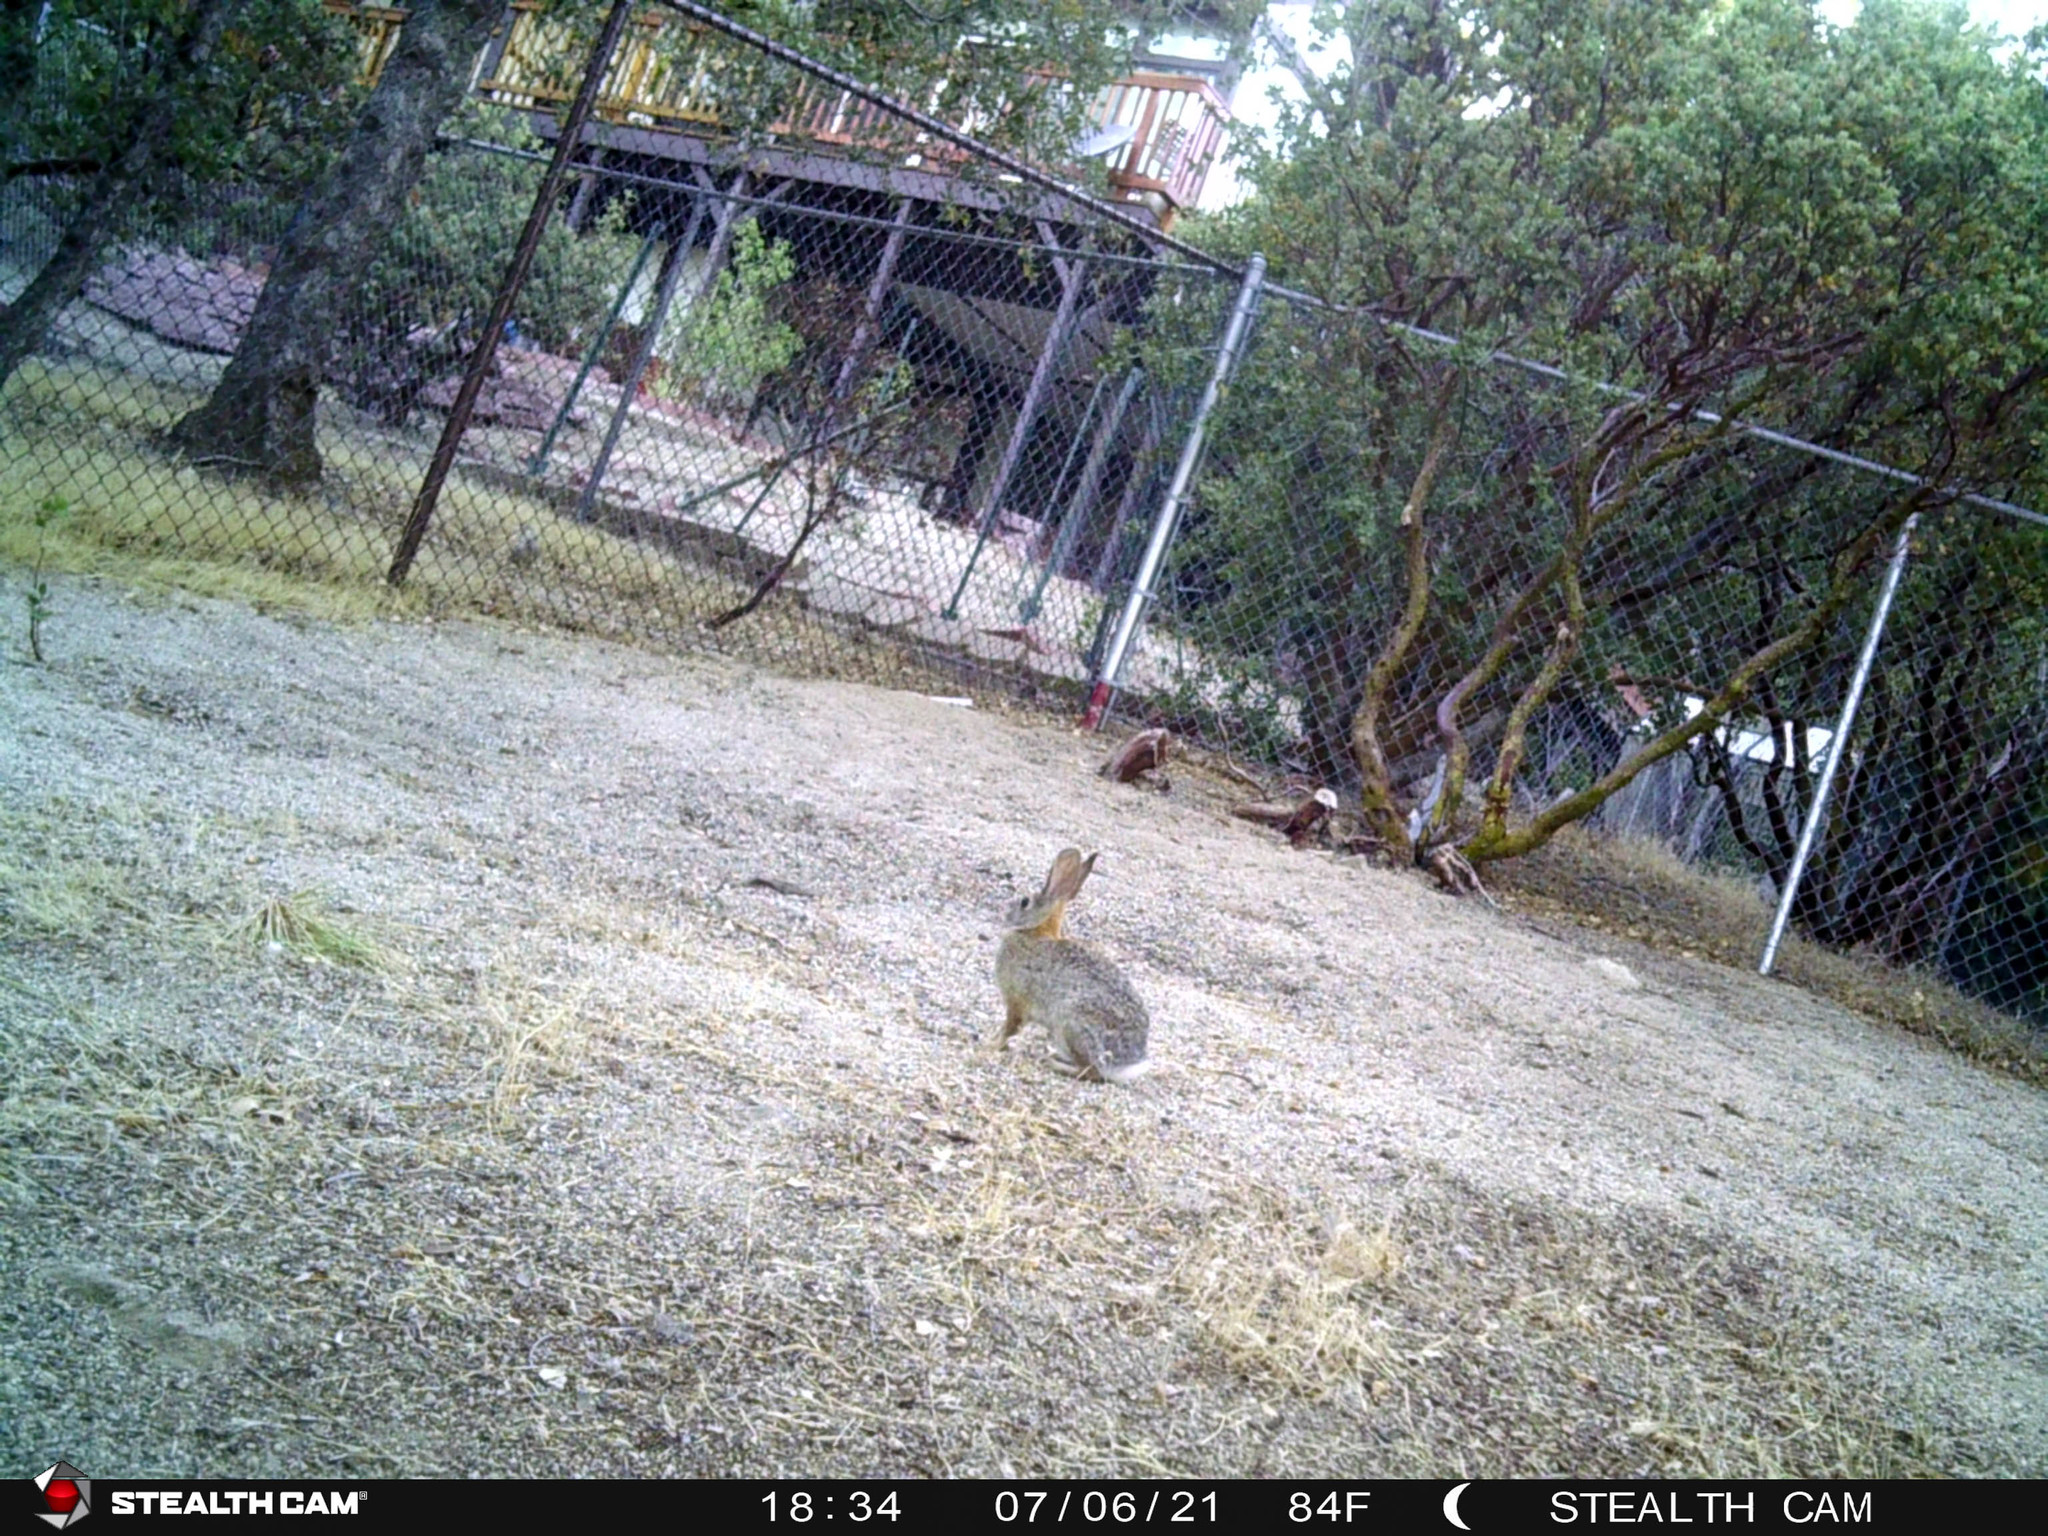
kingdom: Animalia
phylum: Chordata
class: Mammalia
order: Lagomorpha
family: Leporidae
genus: Sylvilagus
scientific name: Sylvilagus audubonii
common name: Desert cottontail
